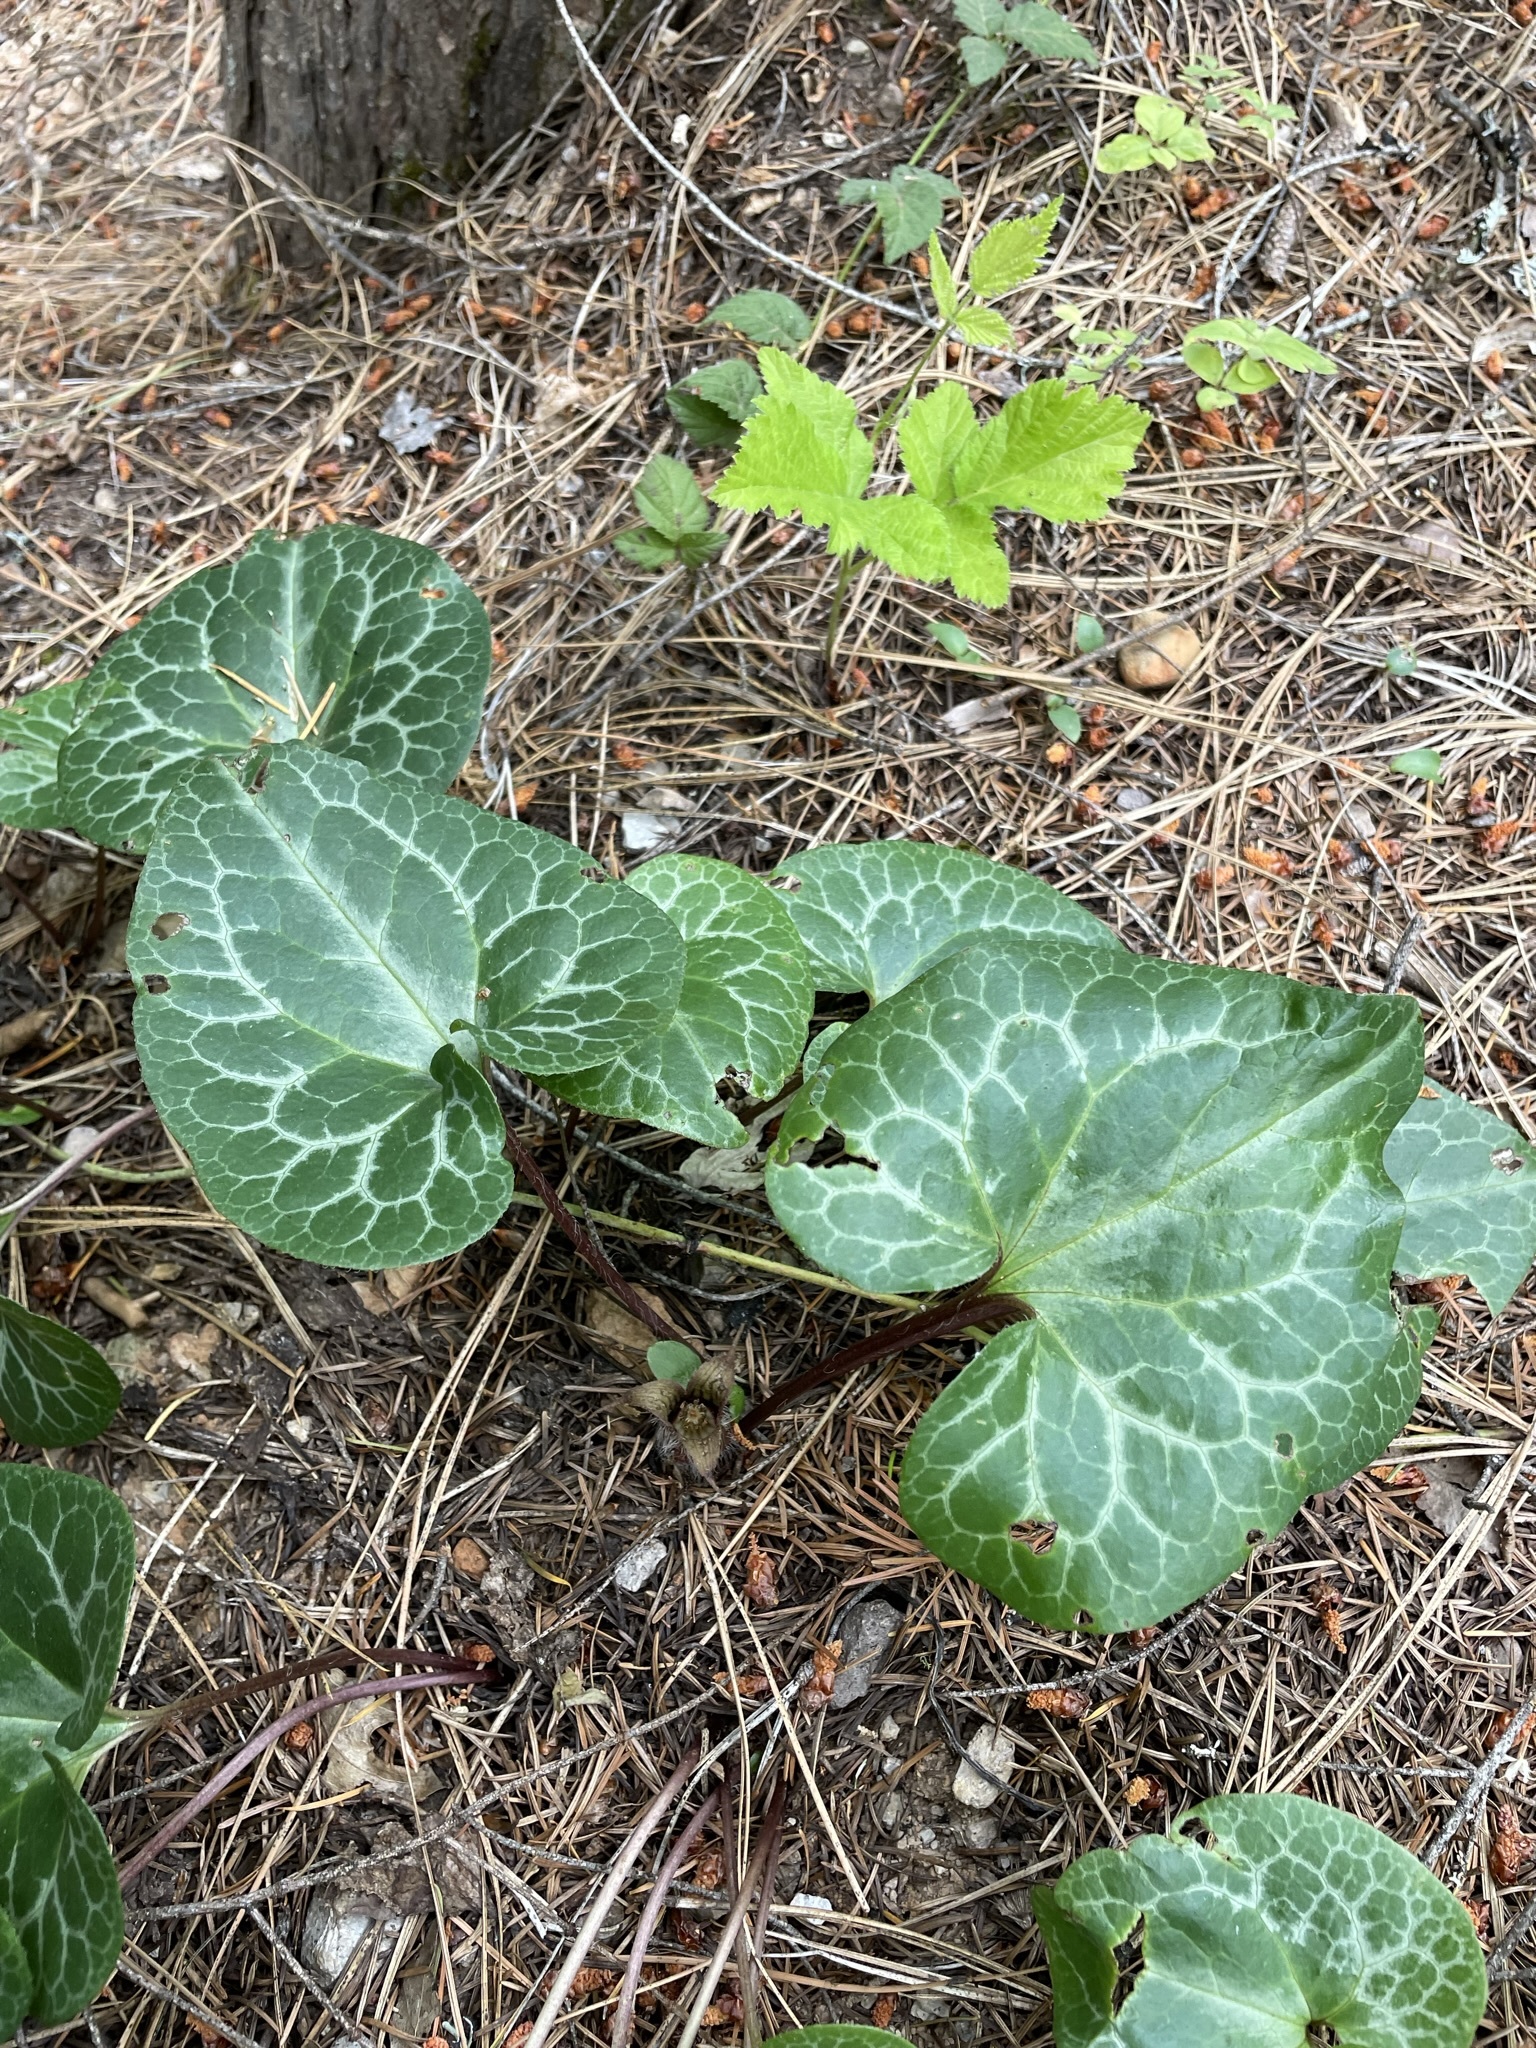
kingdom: Plantae
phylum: Tracheophyta
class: Magnoliopsida
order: Piperales
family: Aristolochiaceae
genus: Asarum
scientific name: Asarum hartwegii
